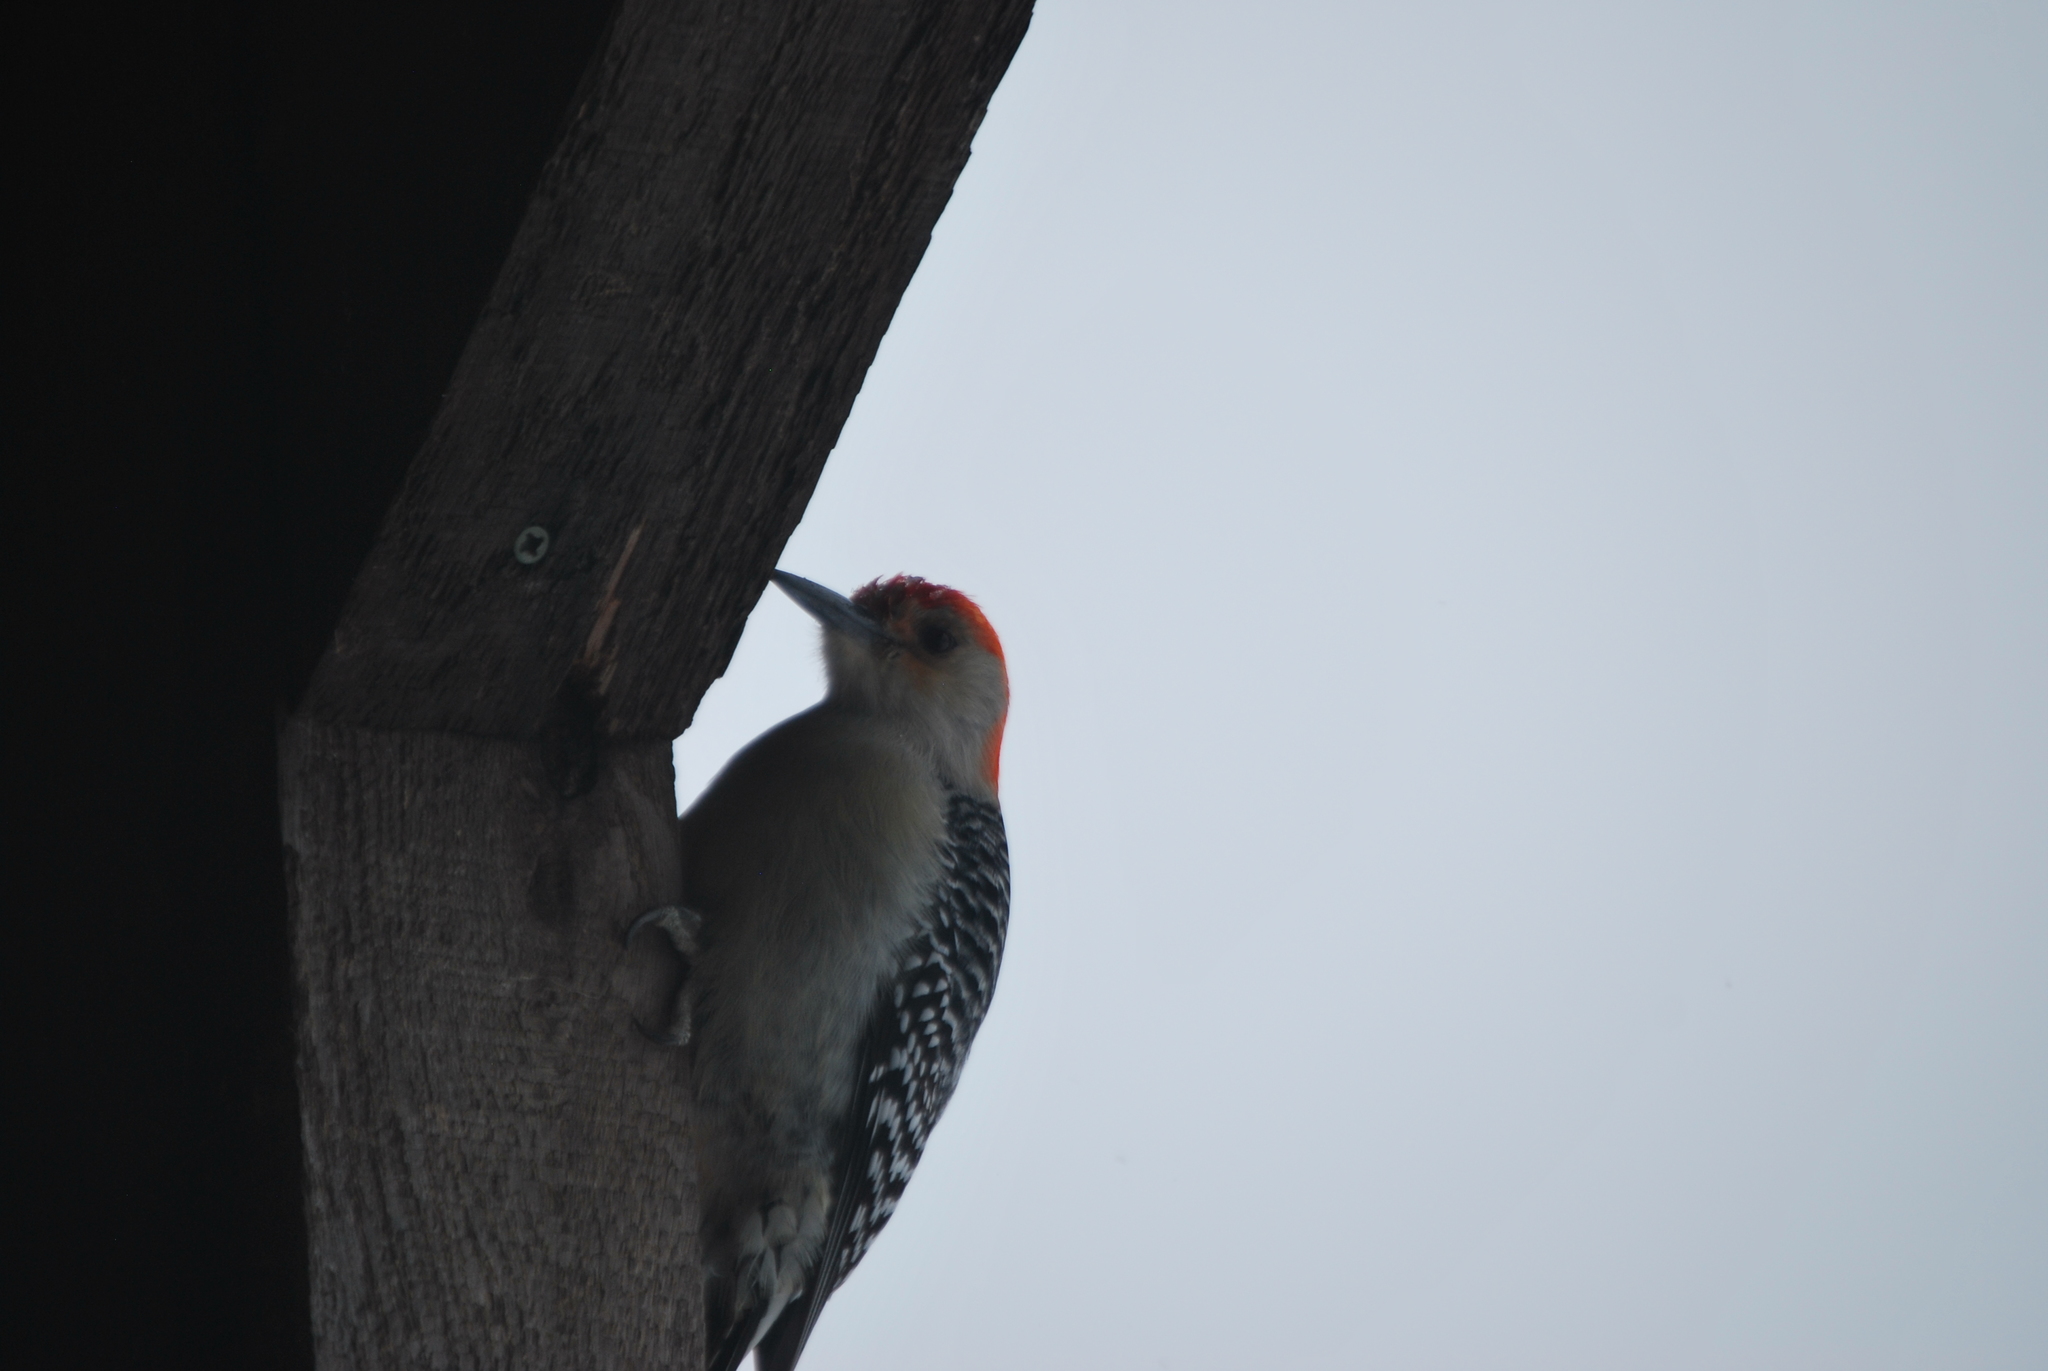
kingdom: Animalia
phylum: Chordata
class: Aves
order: Piciformes
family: Picidae
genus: Melanerpes
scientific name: Melanerpes carolinus
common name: Red-bellied woodpecker
